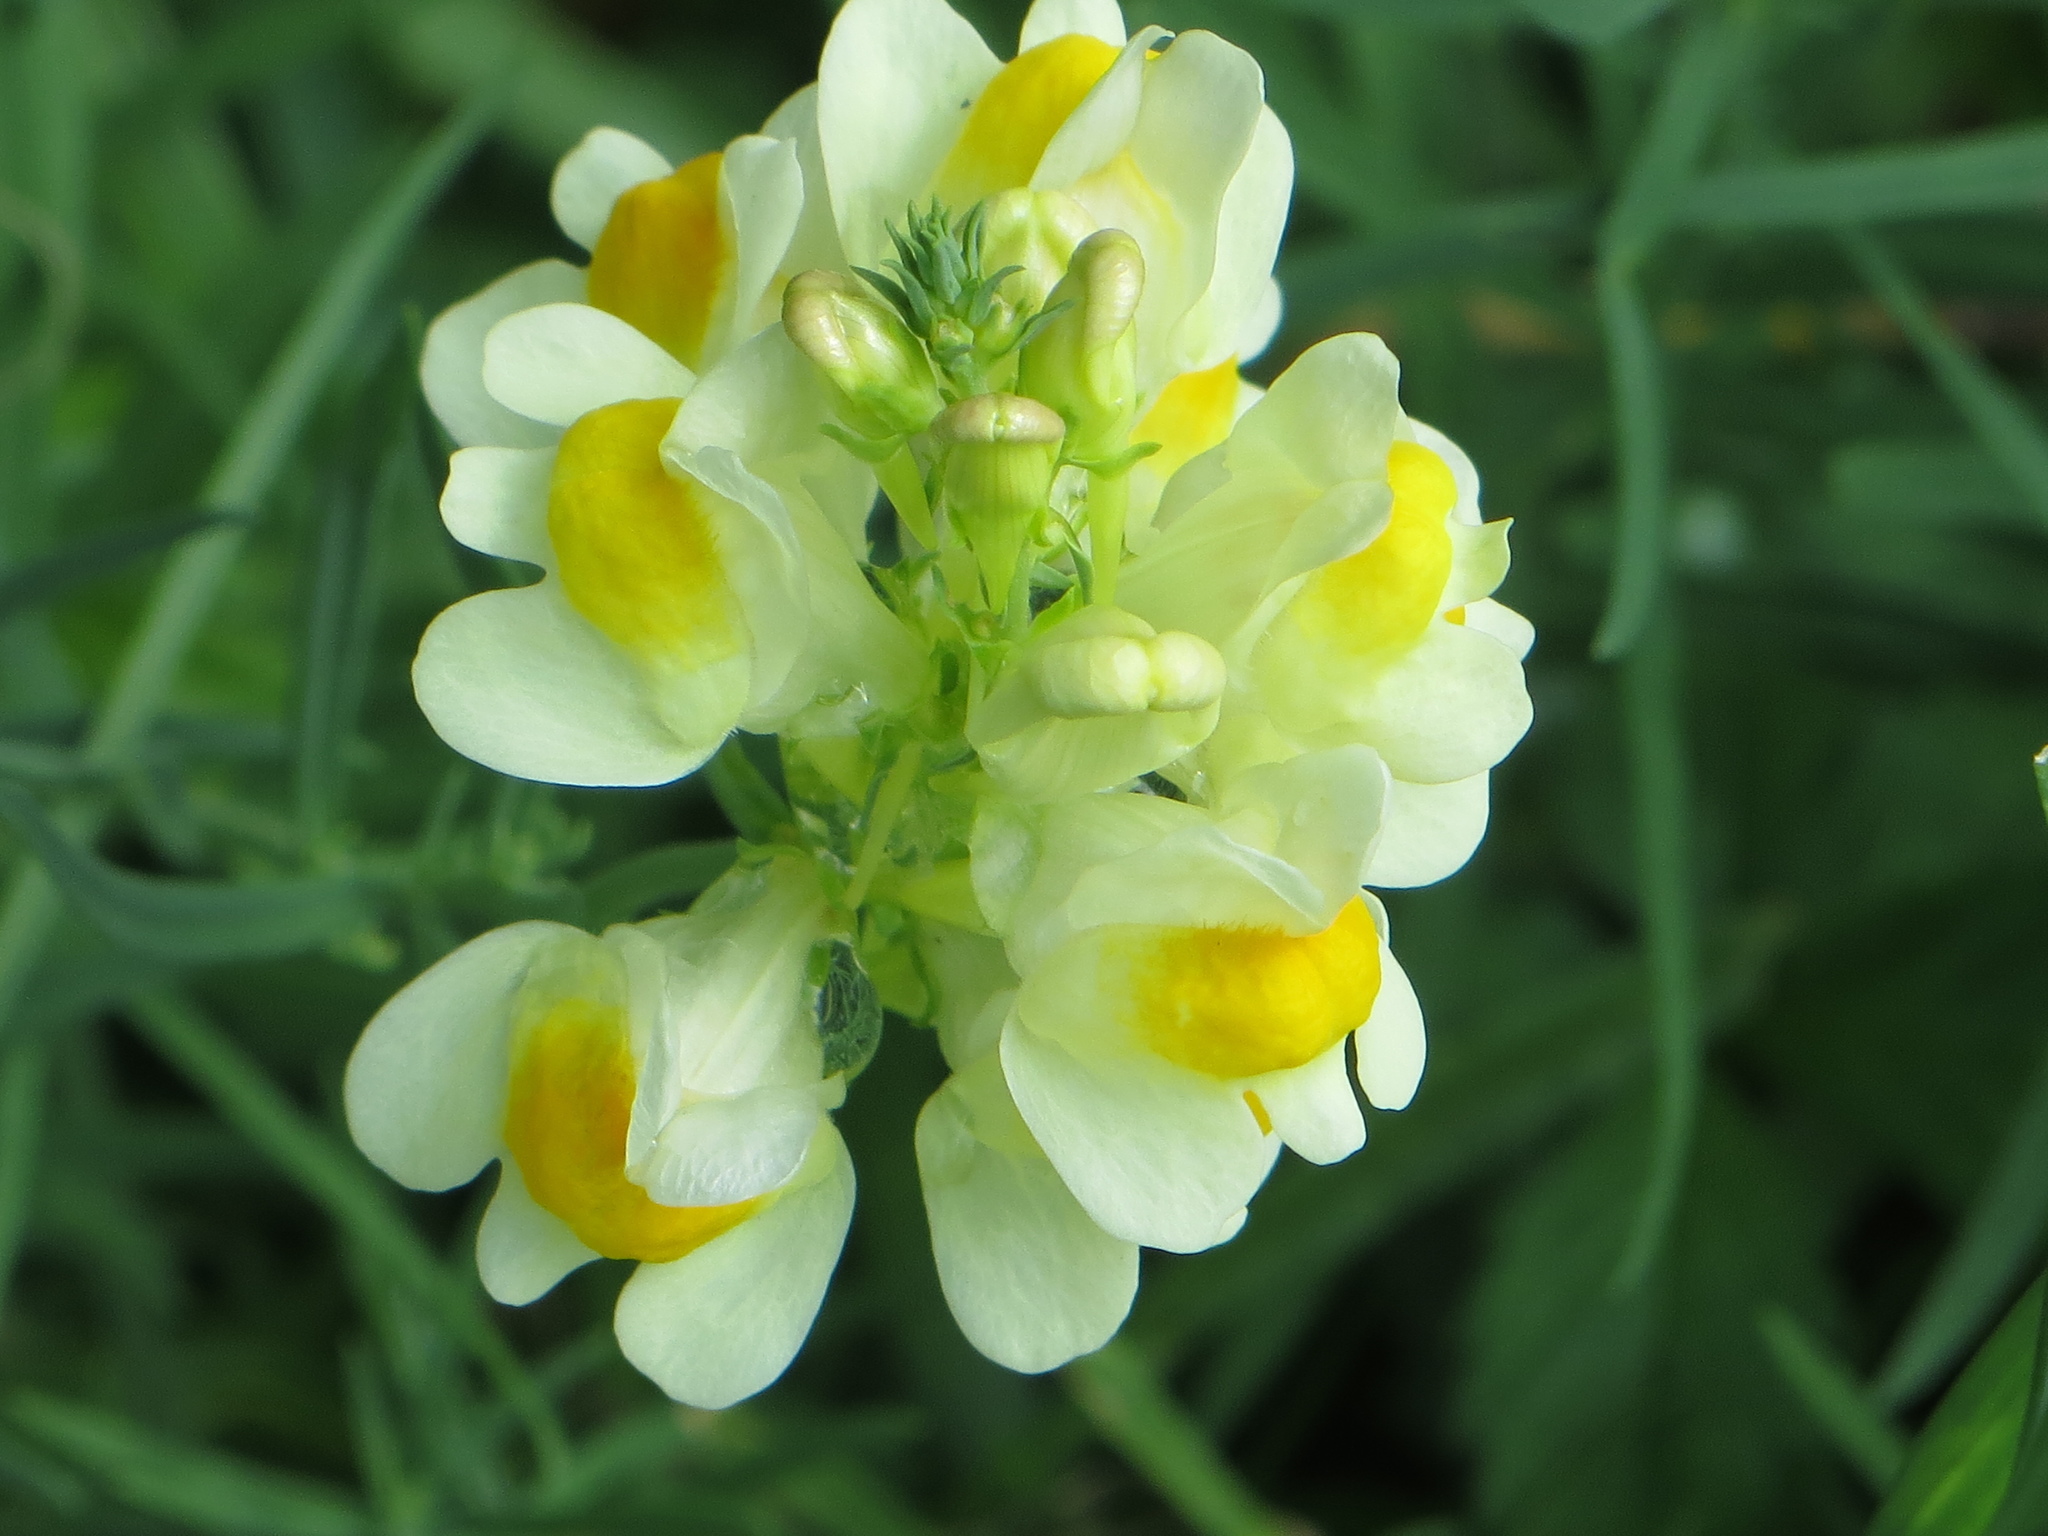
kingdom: Plantae
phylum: Tracheophyta
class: Magnoliopsida
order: Lamiales
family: Plantaginaceae
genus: Linaria
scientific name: Linaria vulgaris
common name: Butter and eggs
